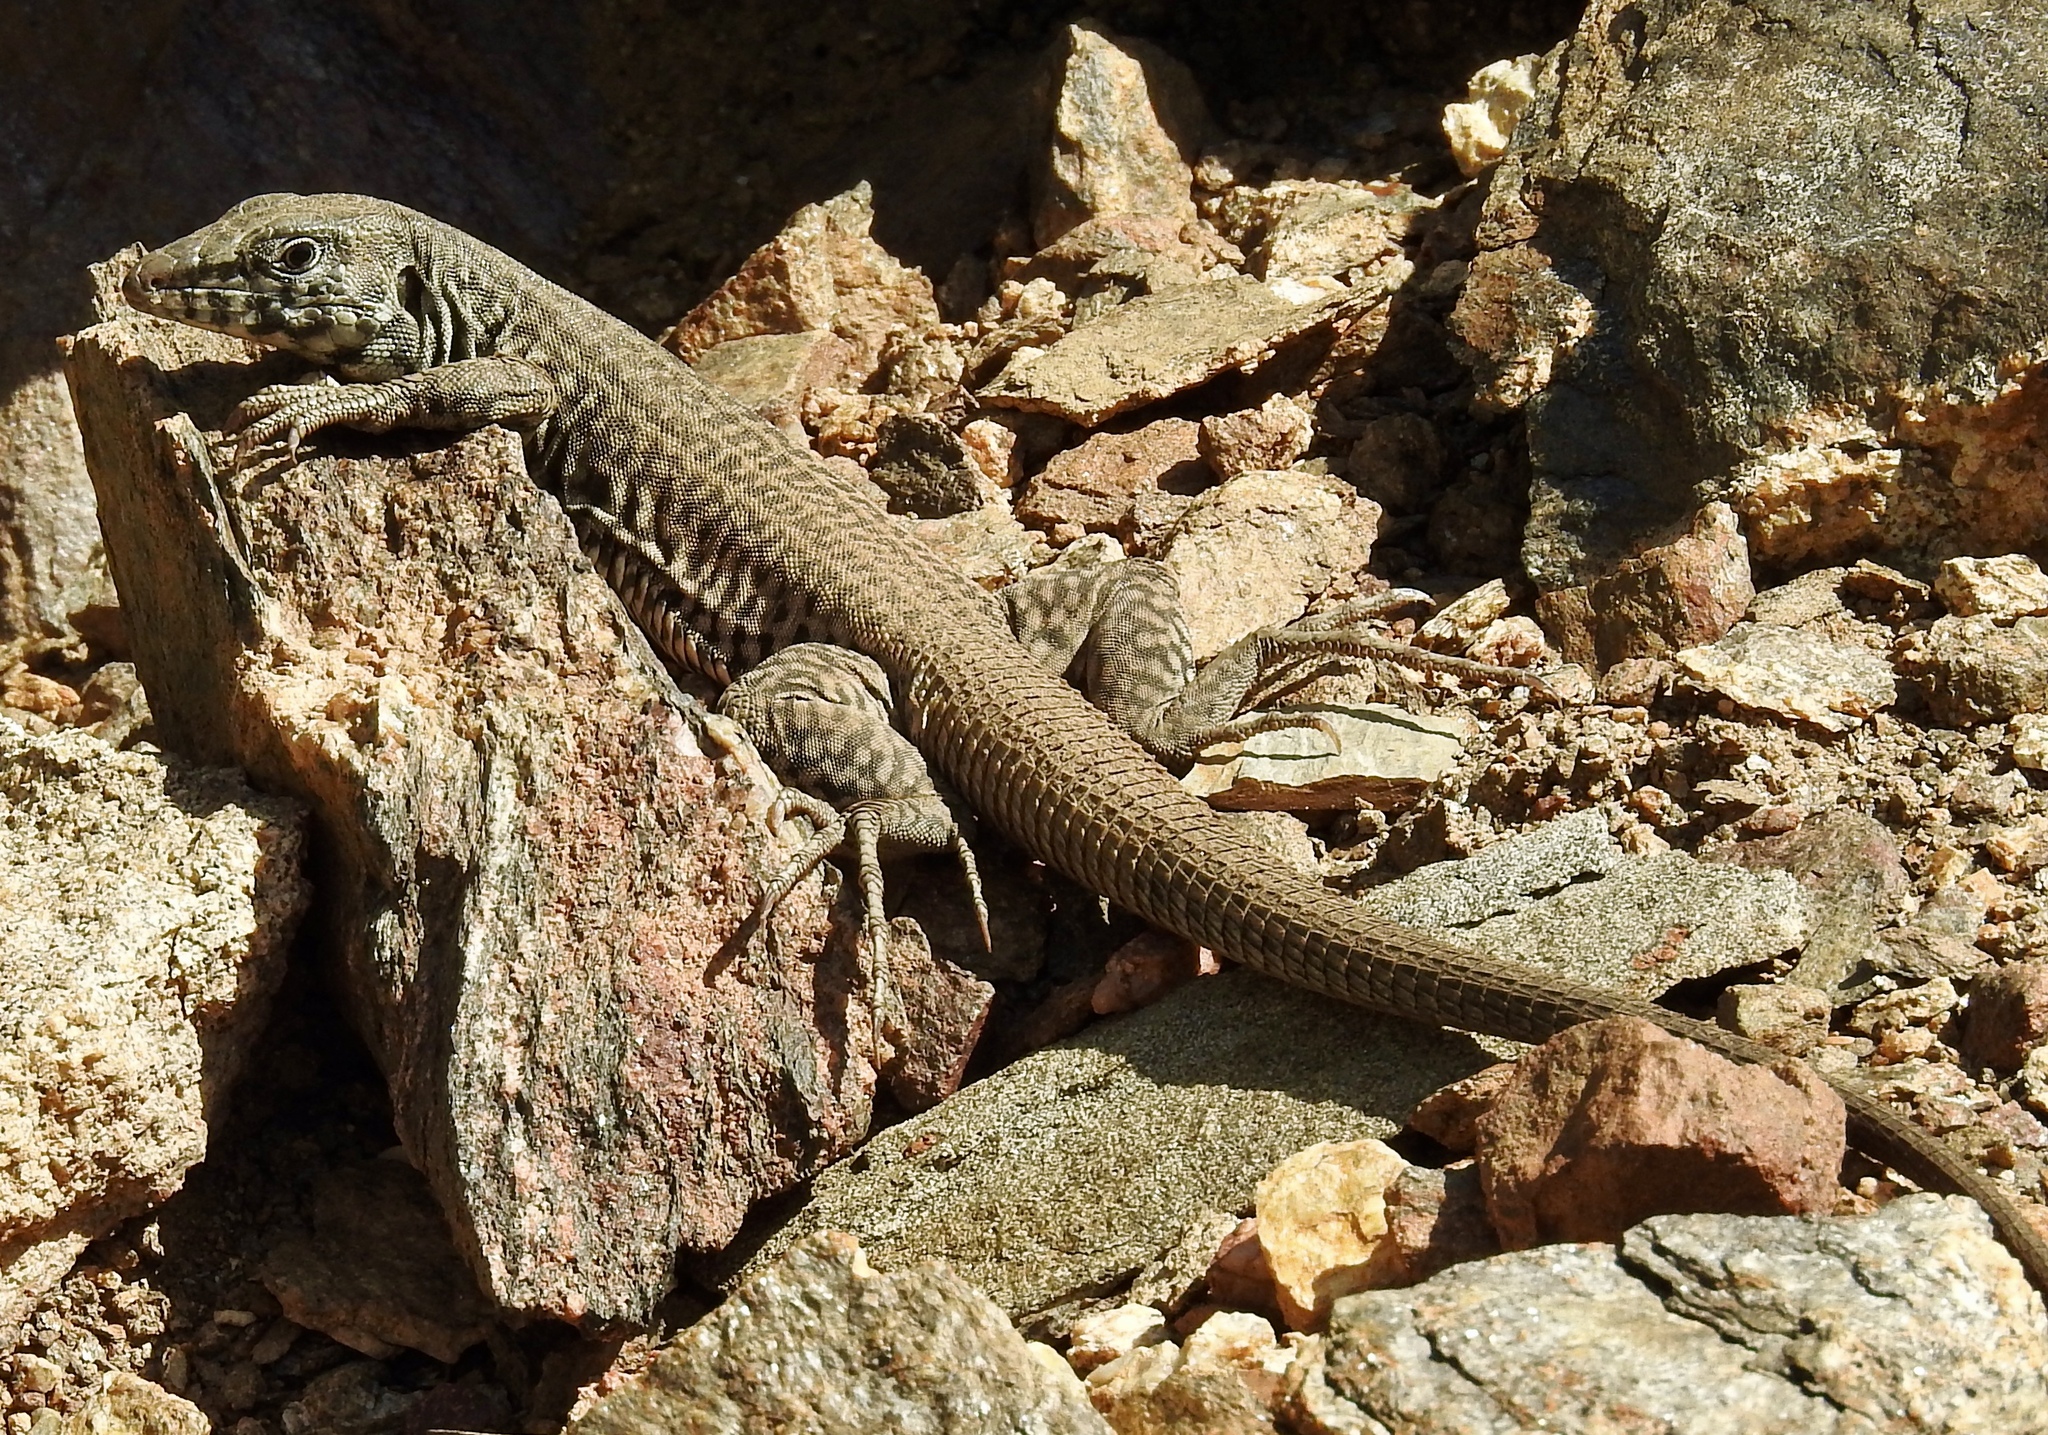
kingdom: Animalia
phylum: Chordata
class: Squamata
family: Teiidae
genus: Aspidoscelis
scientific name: Aspidoscelis tigris
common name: Tiger whiptail
